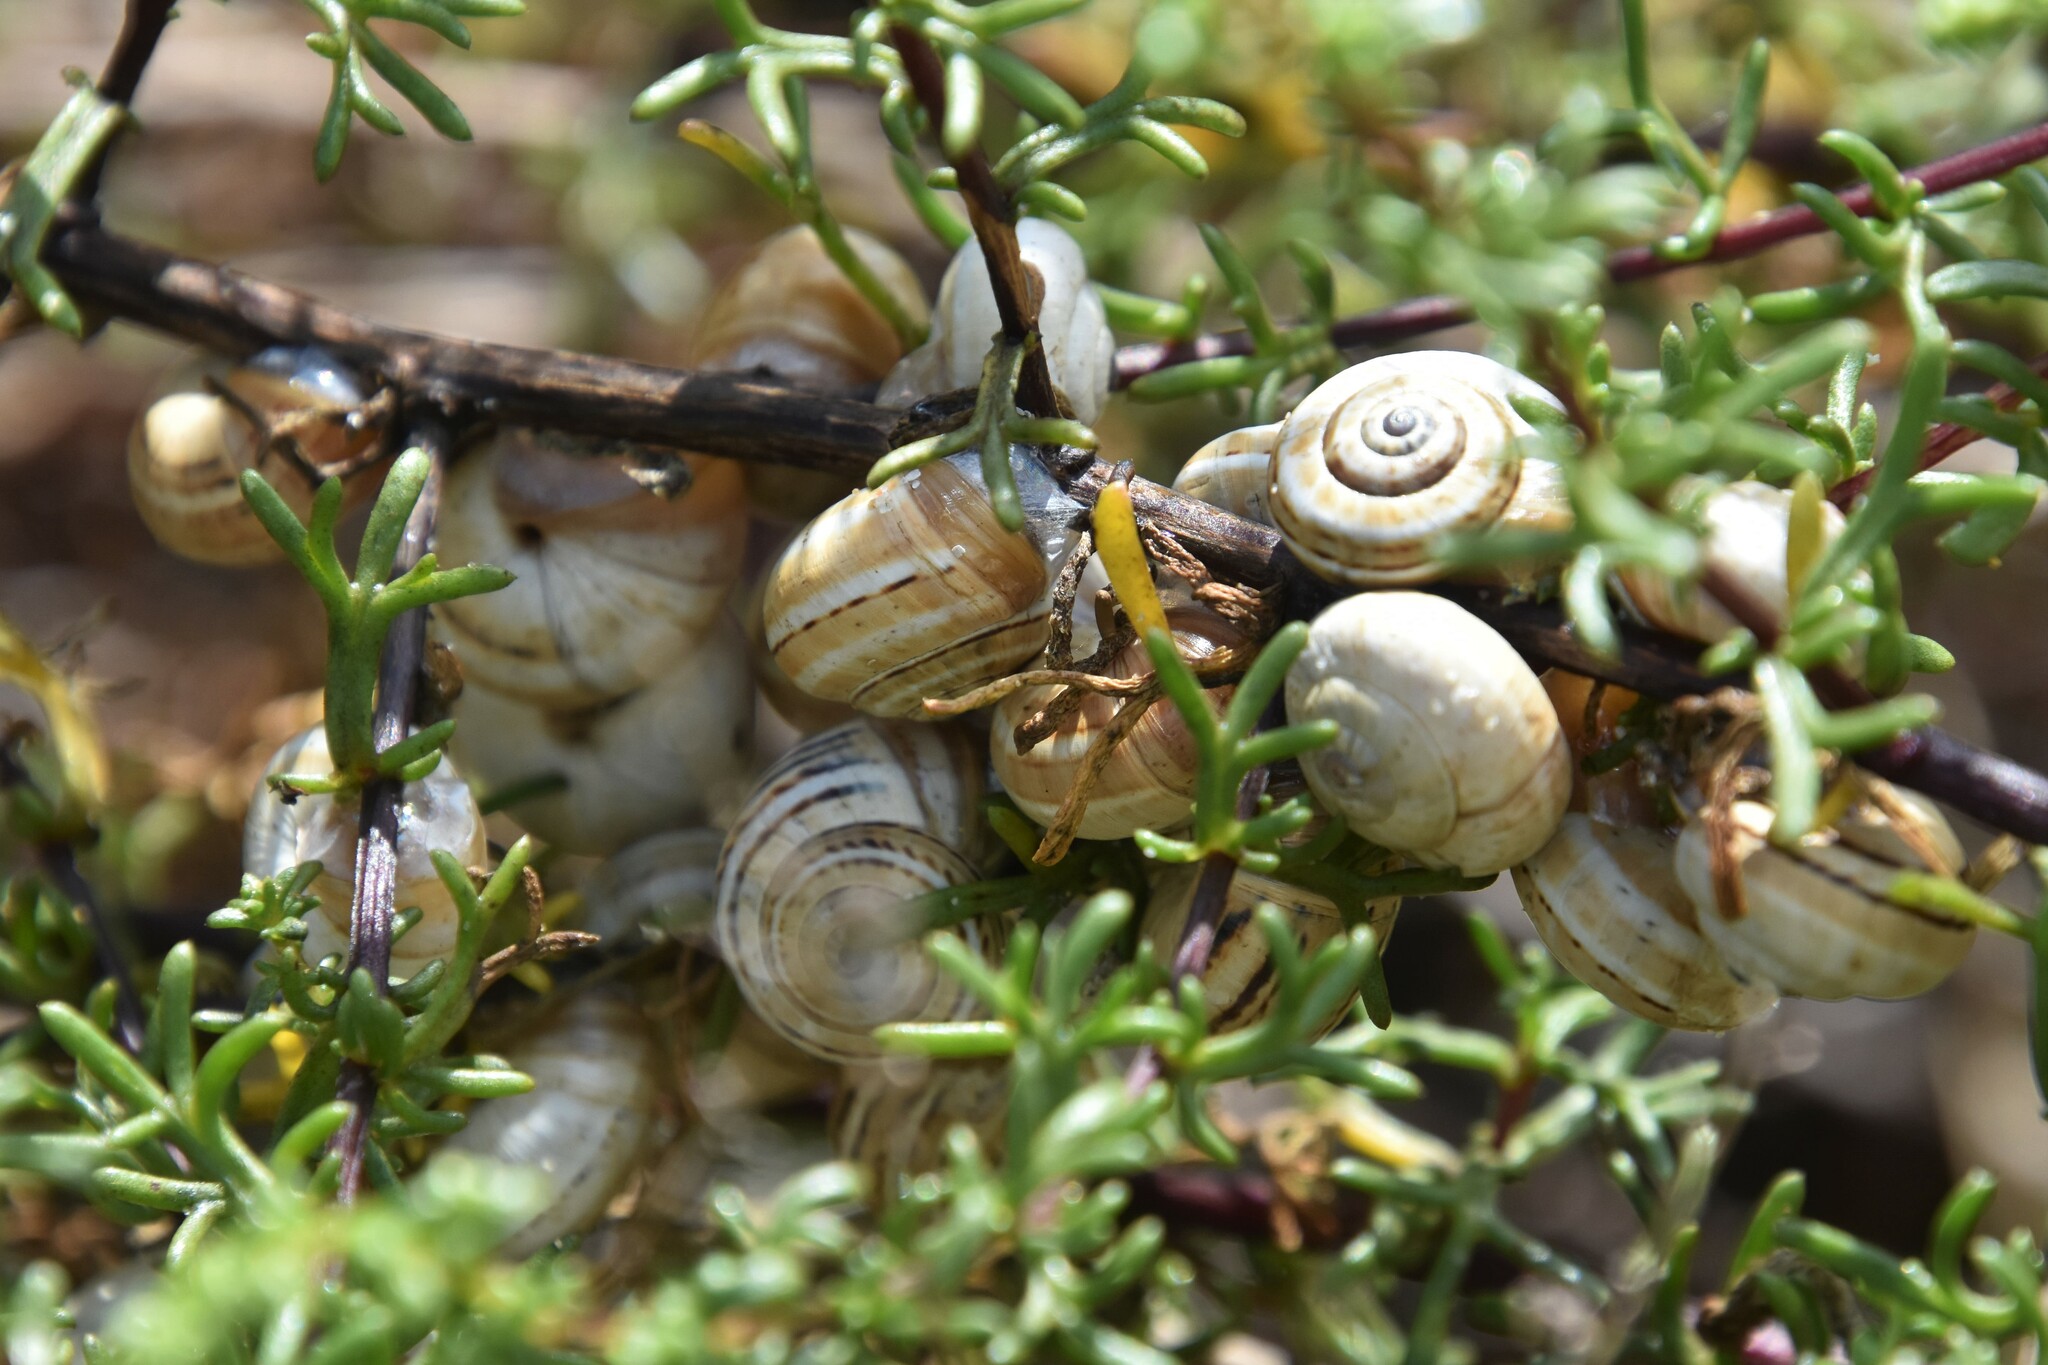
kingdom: Animalia
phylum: Mollusca
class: Gastropoda
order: Stylommatophora
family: Helicidae
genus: Theba
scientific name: Theba pisana
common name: White snail
